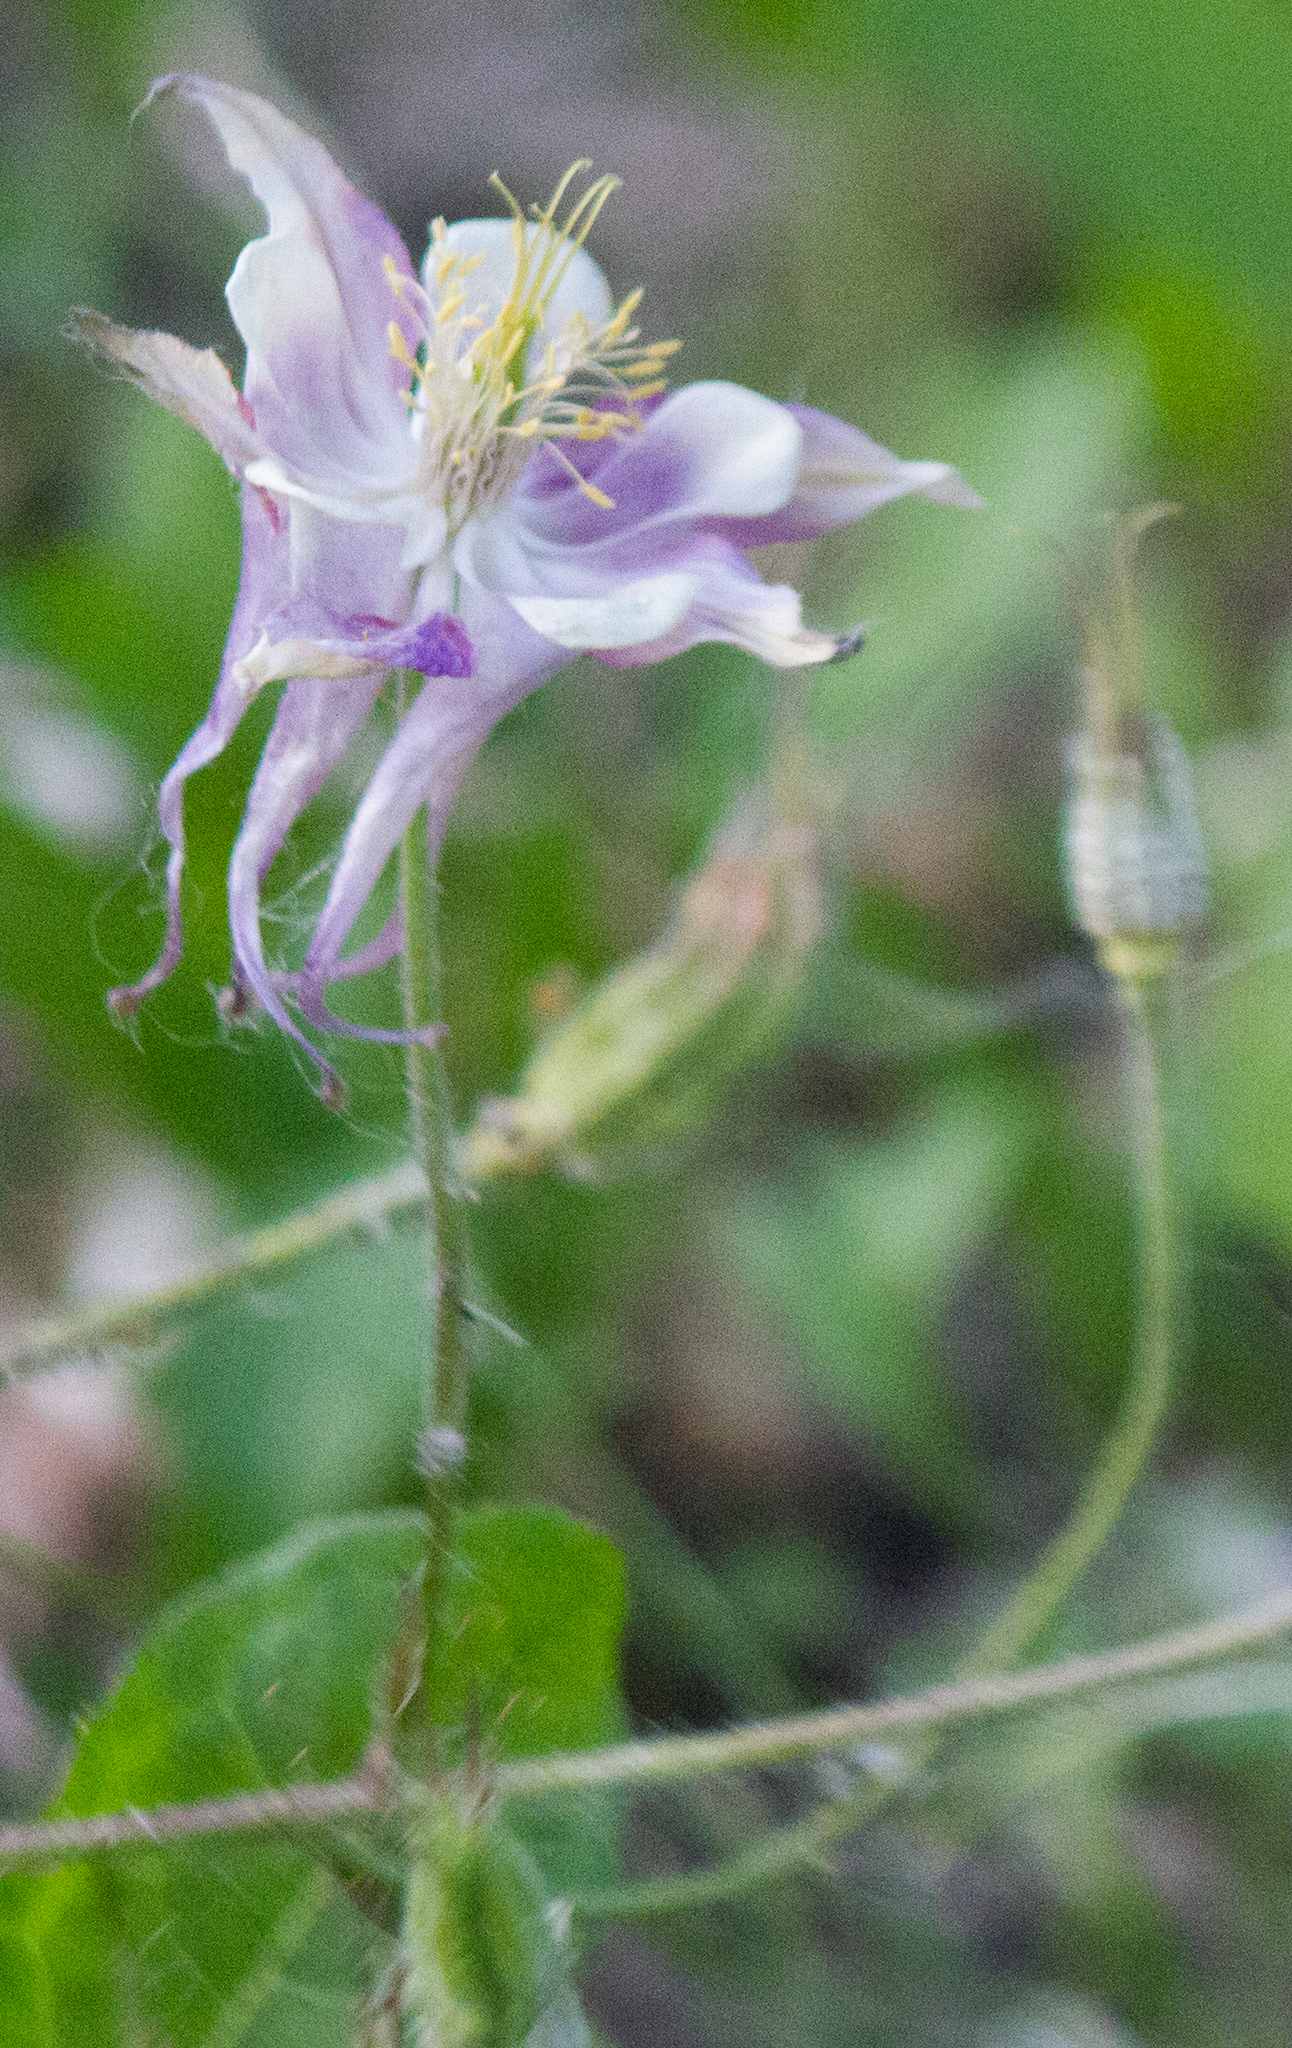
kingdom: Plantae
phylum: Tracheophyta
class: Magnoliopsida
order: Ranunculales
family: Ranunculaceae
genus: Aquilegia
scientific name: Aquilegia vulgaris
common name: Columbine
